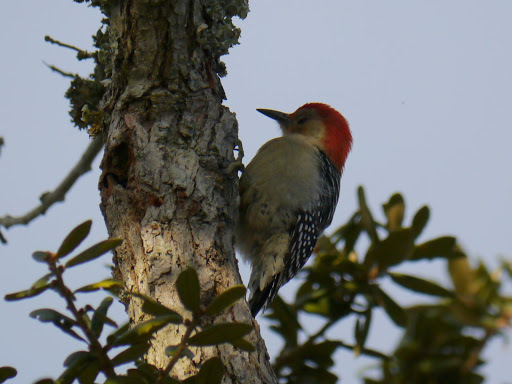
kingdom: Animalia
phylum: Chordata
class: Aves
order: Piciformes
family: Picidae
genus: Melanerpes
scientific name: Melanerpes carolinus
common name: Red-bellied woodpecker
